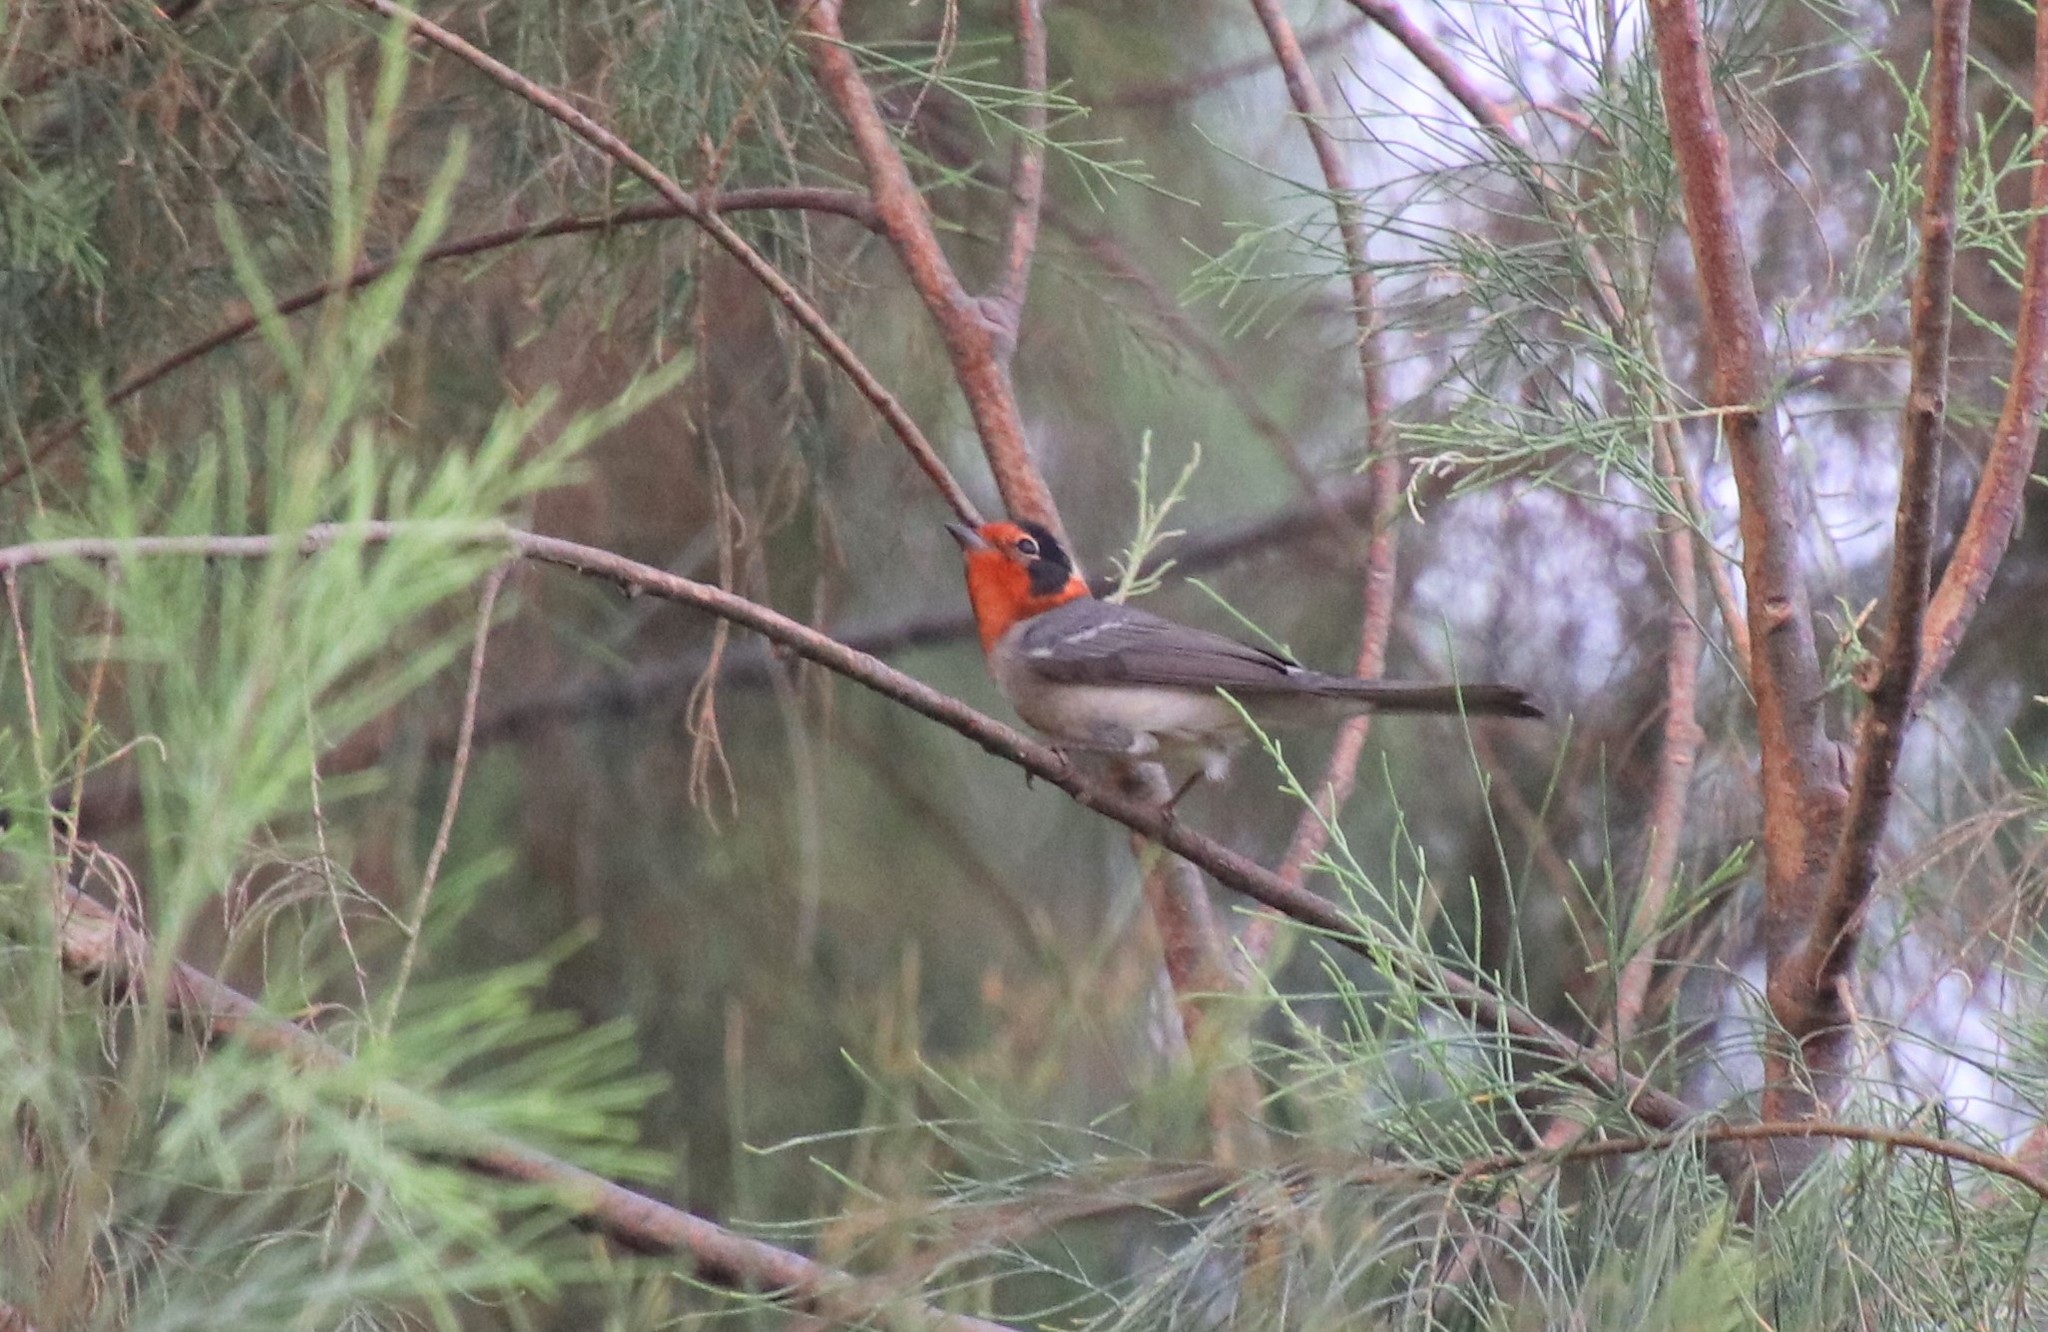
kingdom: Animalia
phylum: Chordata
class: Aves
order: Passeriformes
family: Parulidae
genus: Cardellina
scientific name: Cardellina rubrifrons
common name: Red-faced warbler
